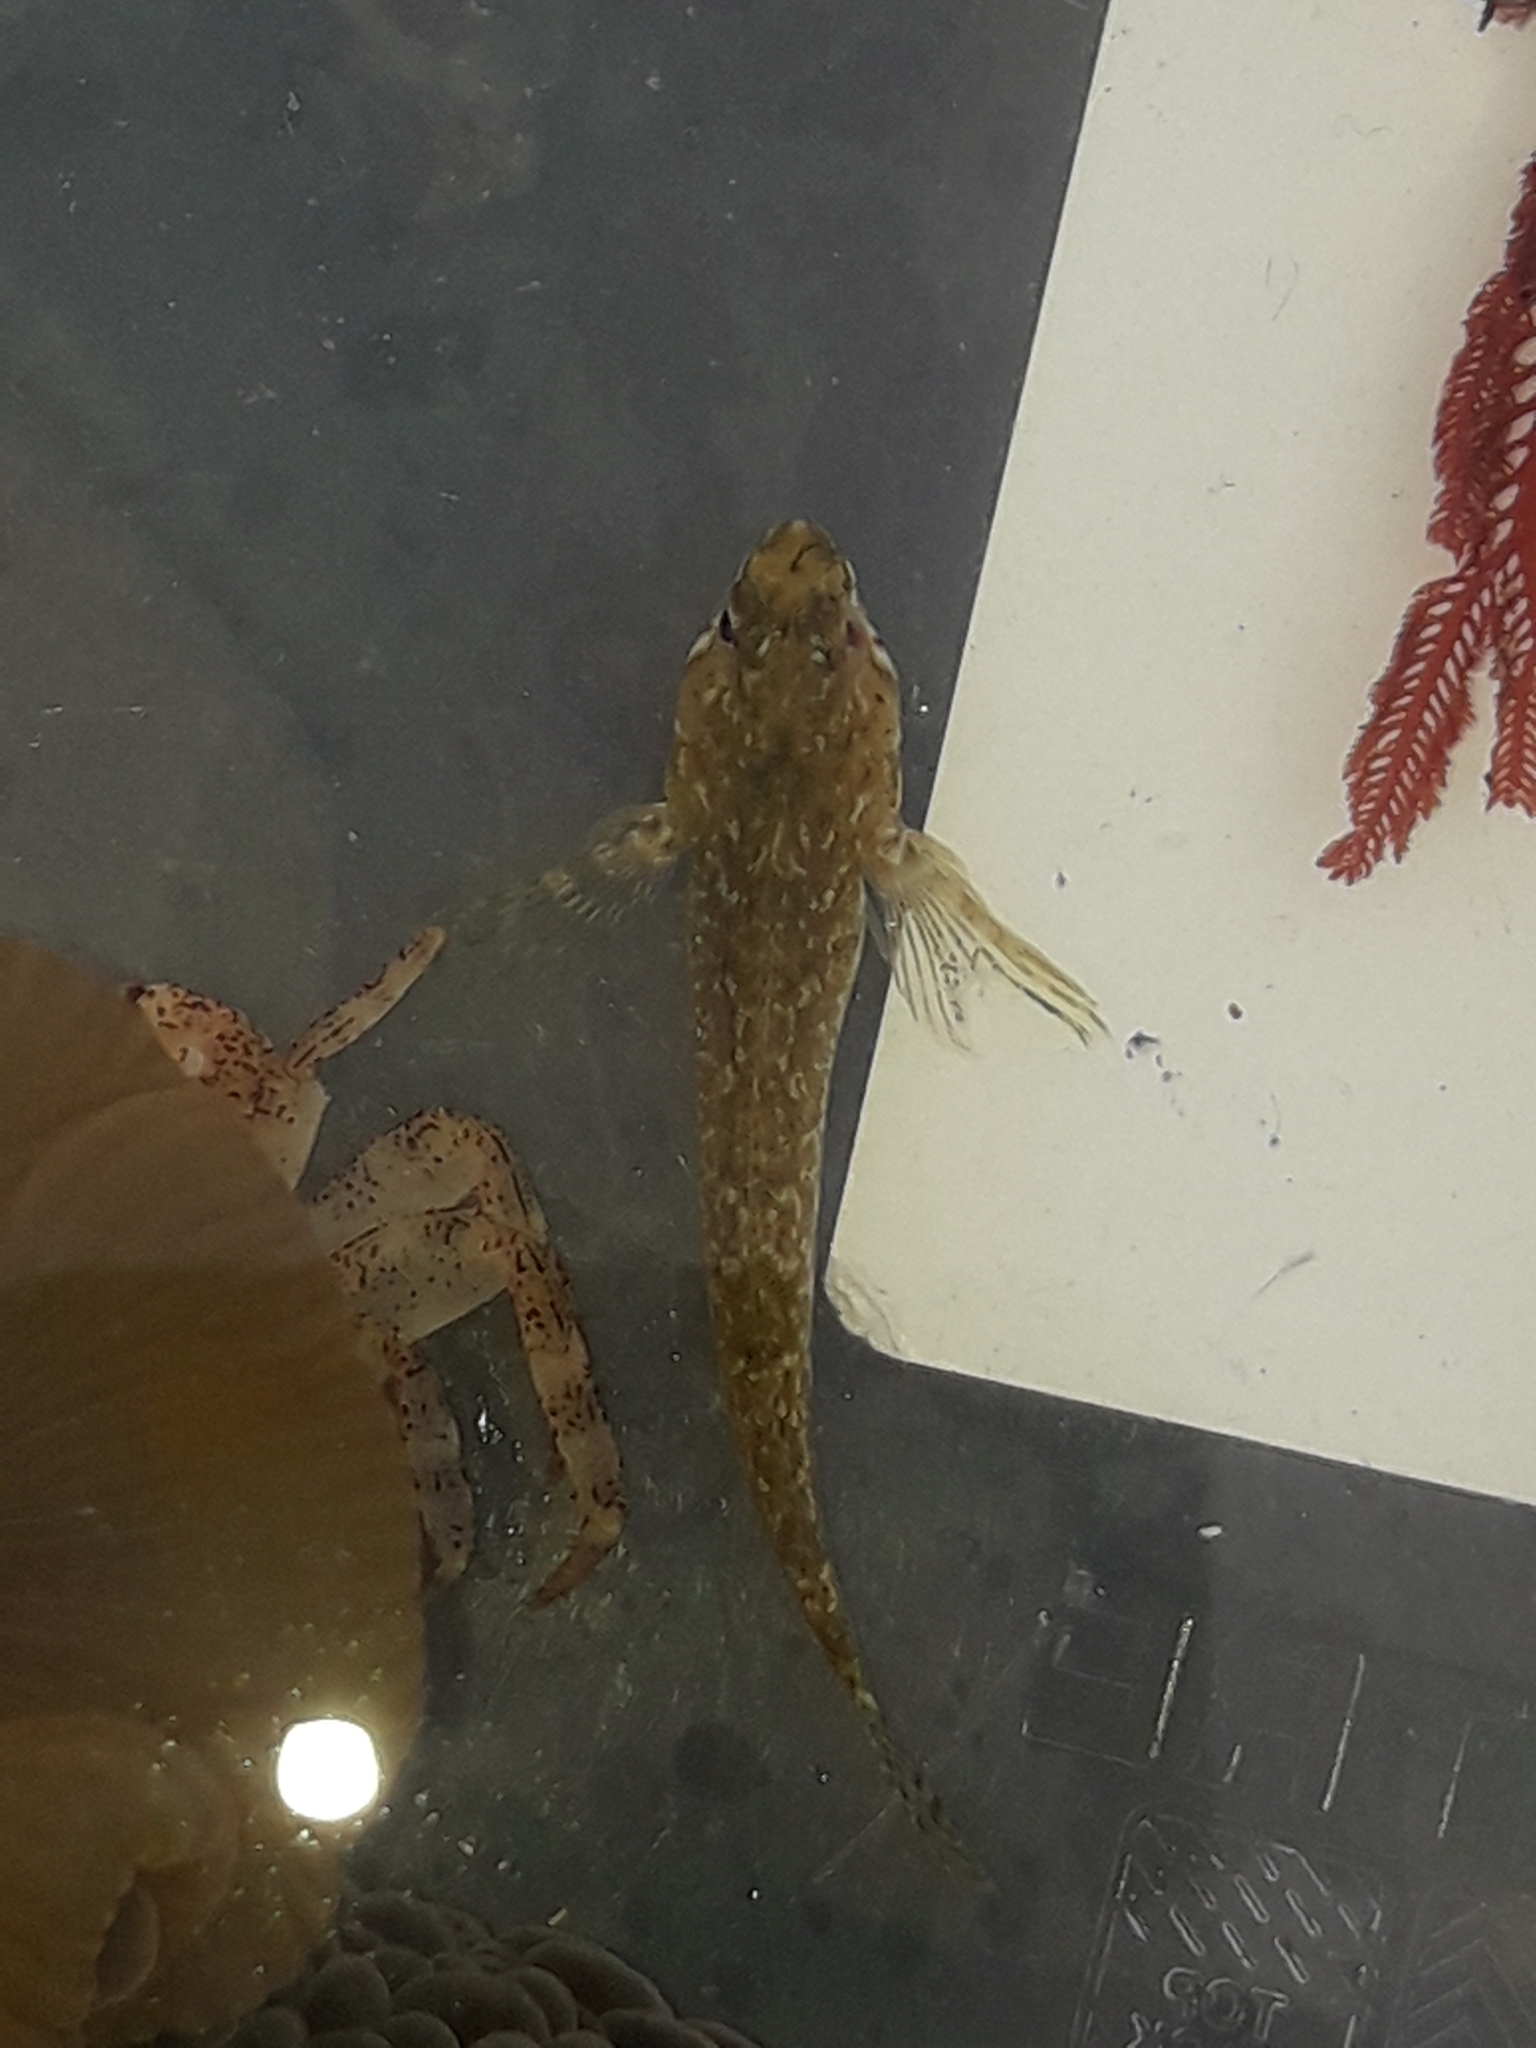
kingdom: Animalia
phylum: Chordata
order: Perciformes
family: Tripterygiidae
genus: Bellapiscis
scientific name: Bellapiscis medius
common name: Twister
